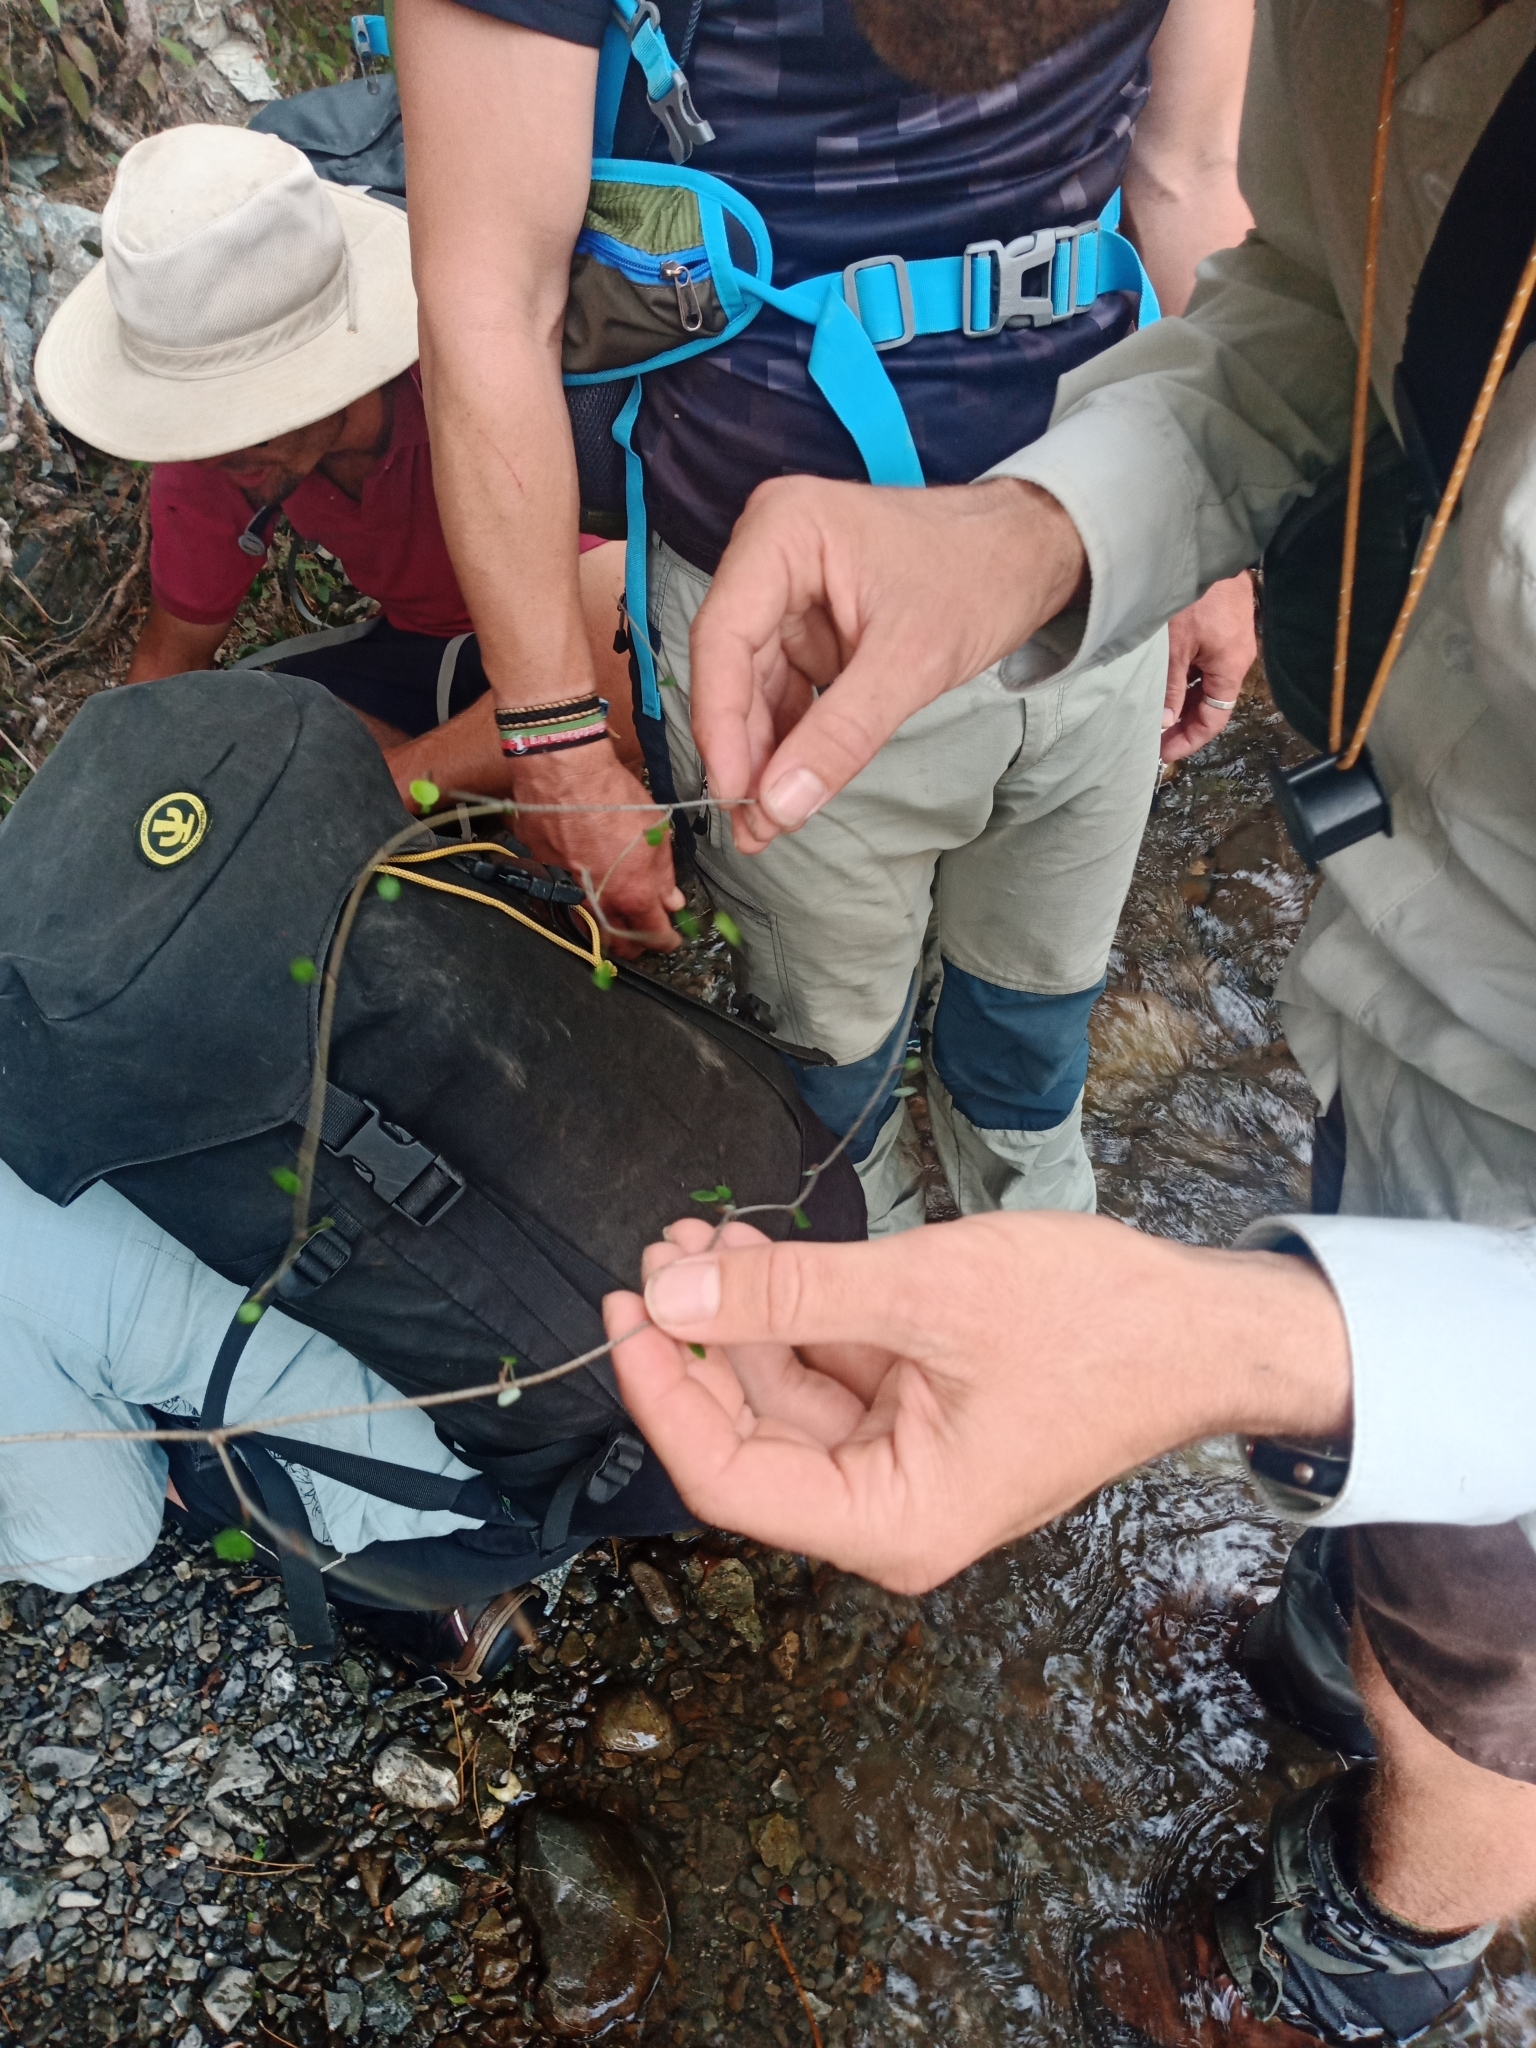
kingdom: Plantae
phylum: Tracheophyta
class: Magnoliopsida
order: Apiales
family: Apiaceae
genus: Scandia
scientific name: Scandia geniculata
